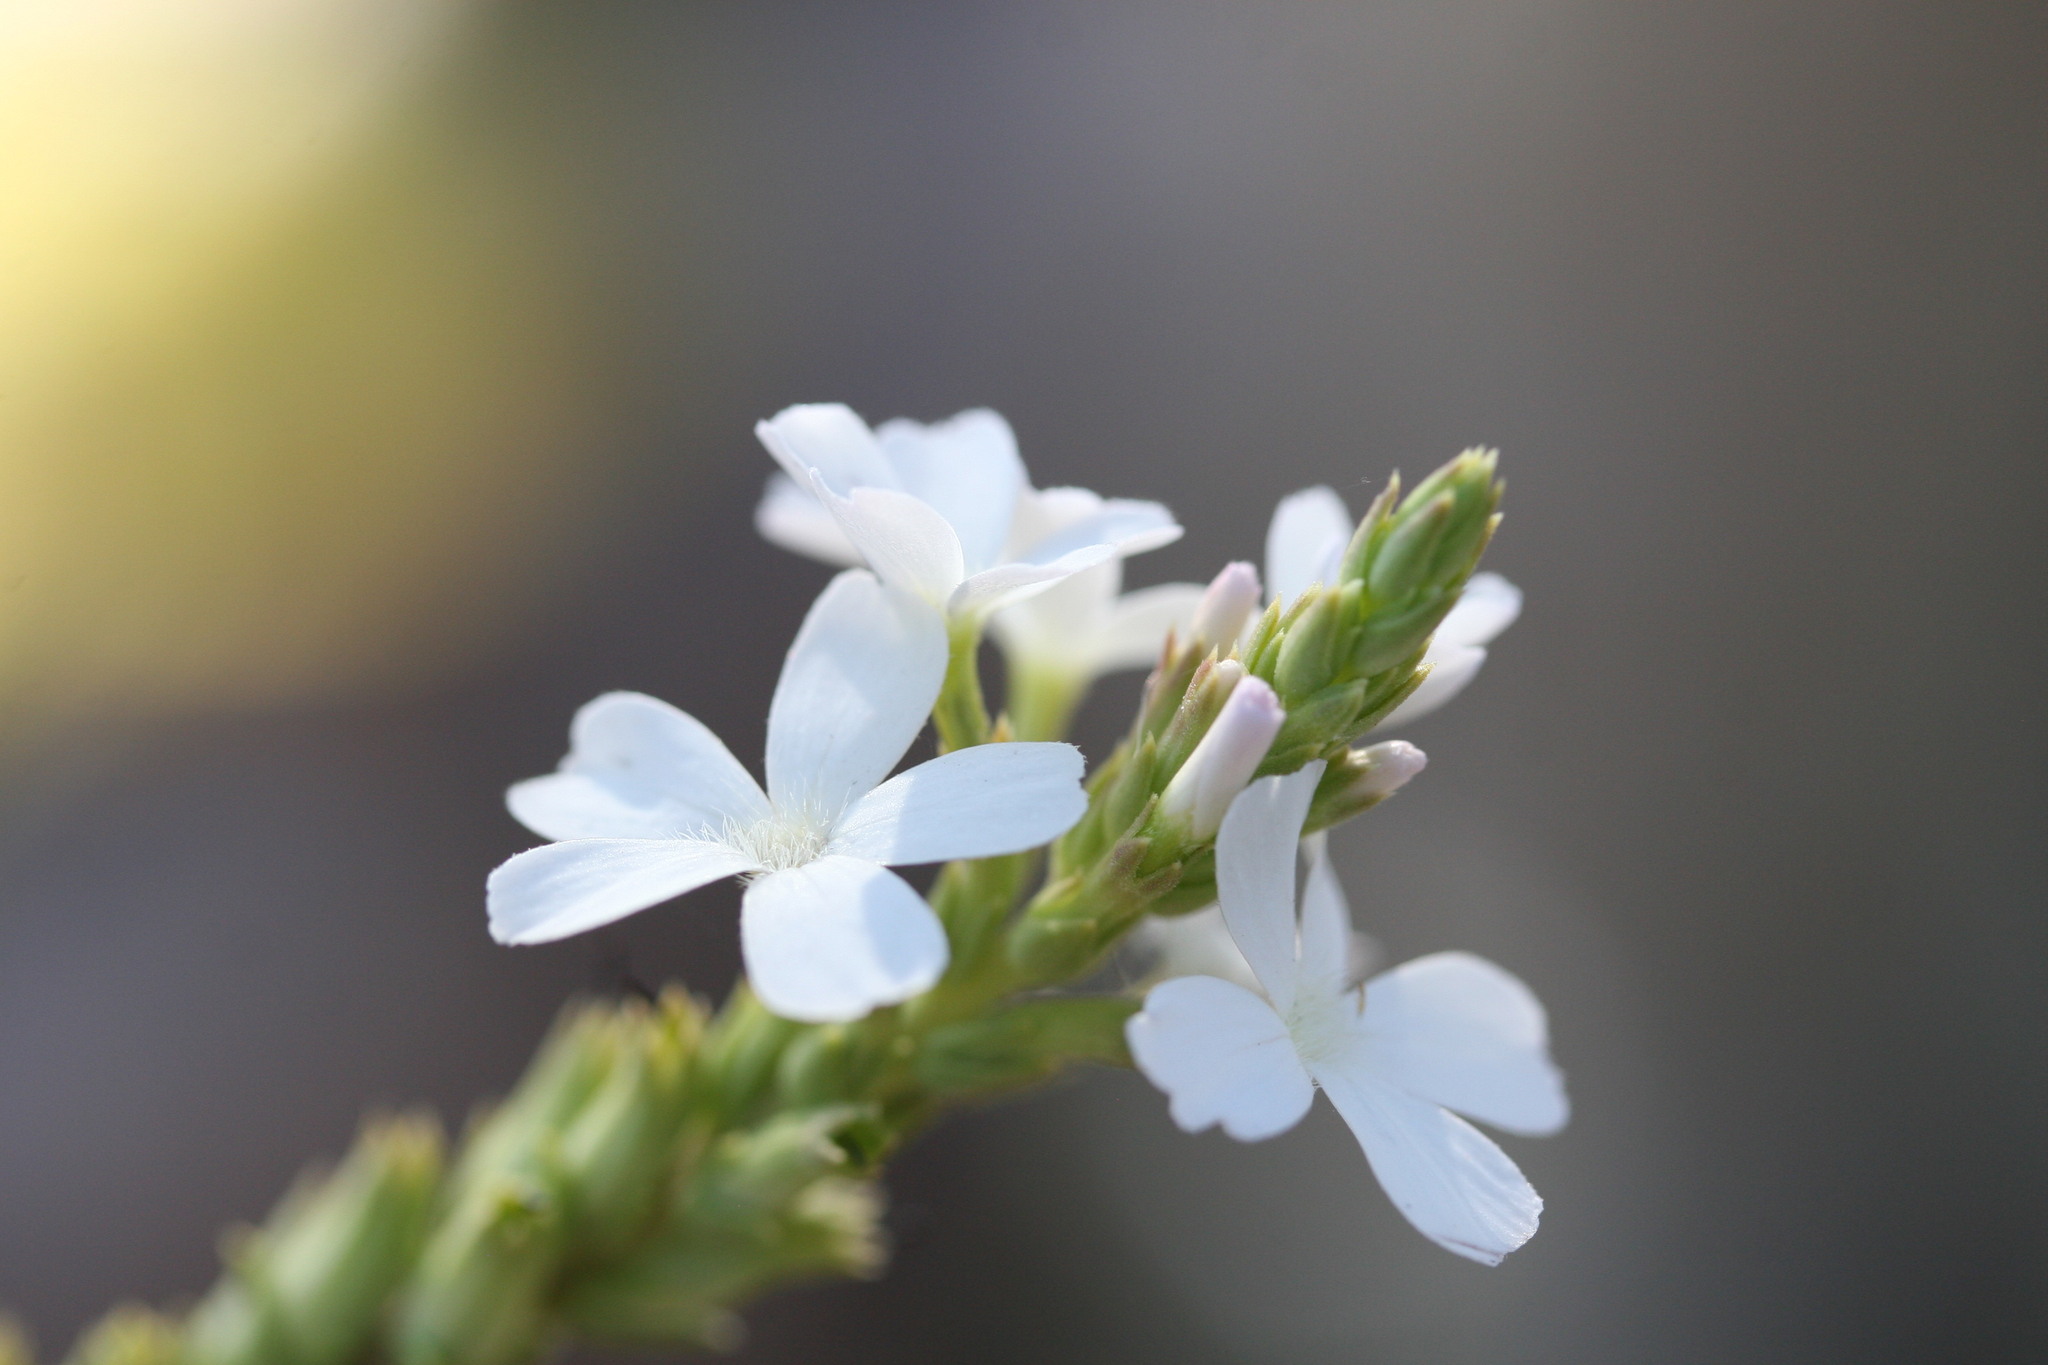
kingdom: Plantae
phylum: Tracheophyta
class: Magnoliopsida
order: Lamiales
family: Orobanchaceae
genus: Buchnera
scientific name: Buchnera asperata
